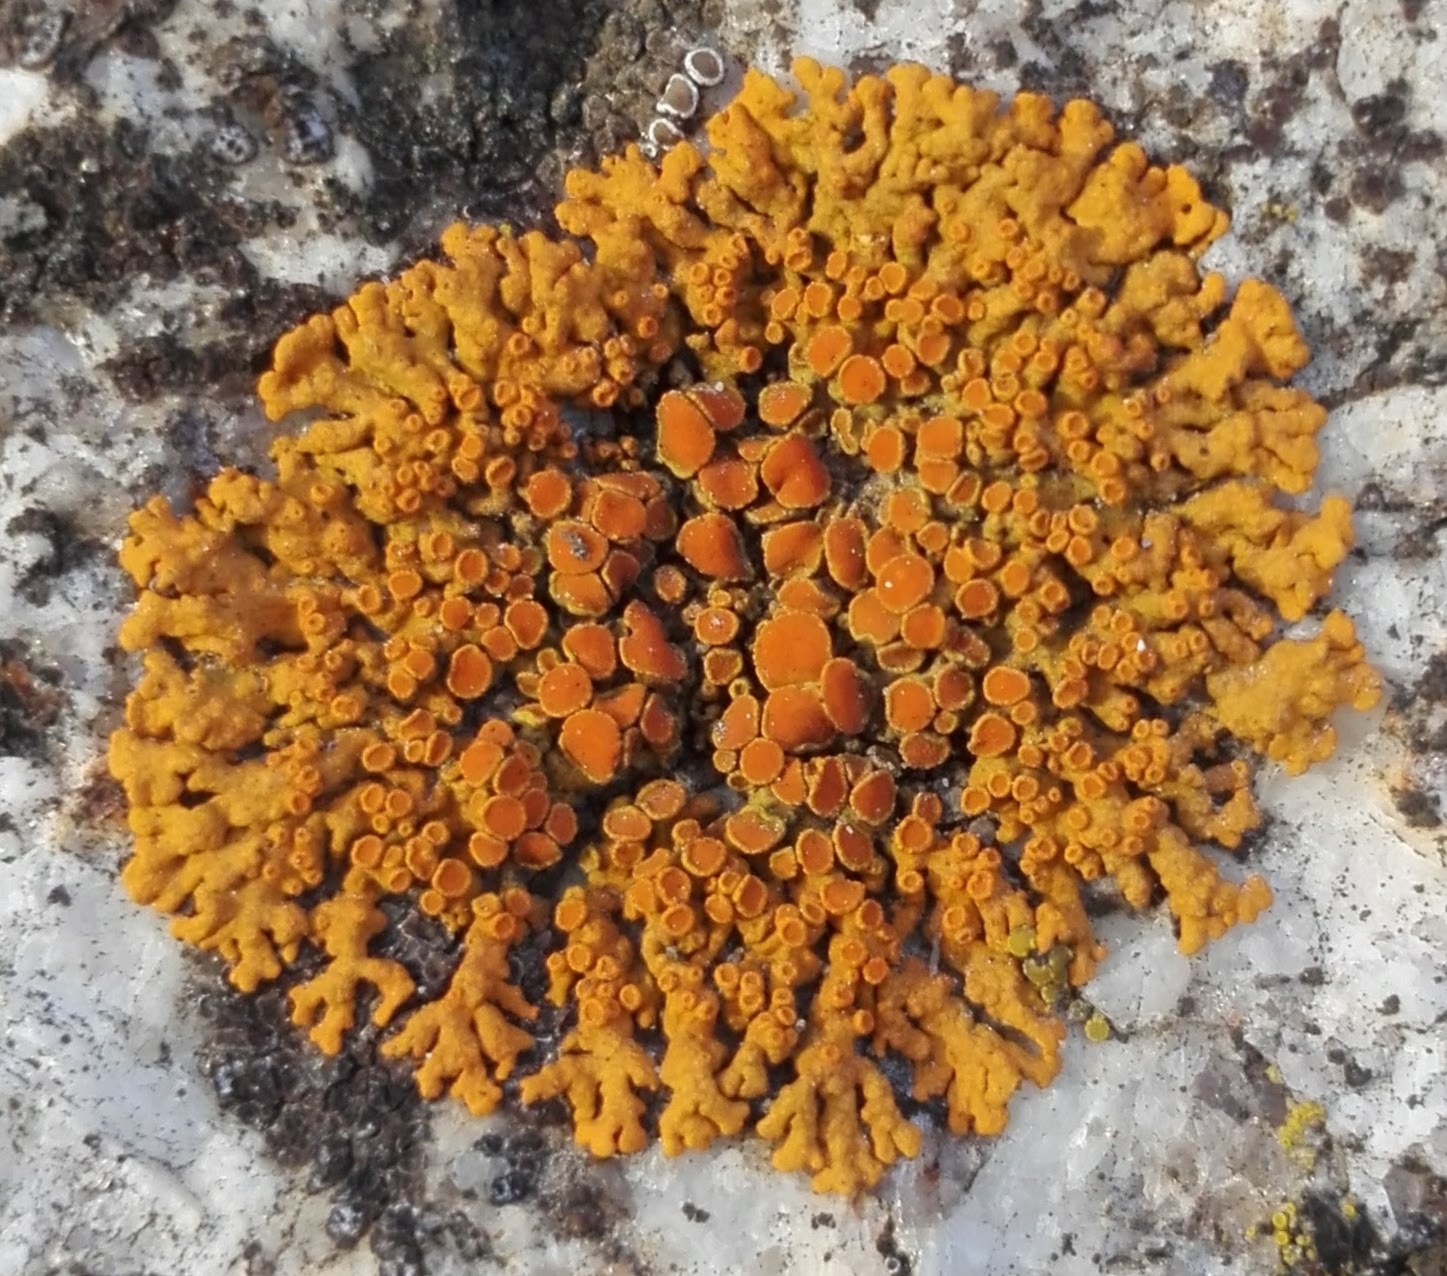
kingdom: Fungi
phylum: Ascomycota
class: Lecanoromycetes
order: Teloschistales
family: Teloschistaceae
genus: Xanthoria
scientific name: Xanthoria elegans
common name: Elegant sunburst lichen
